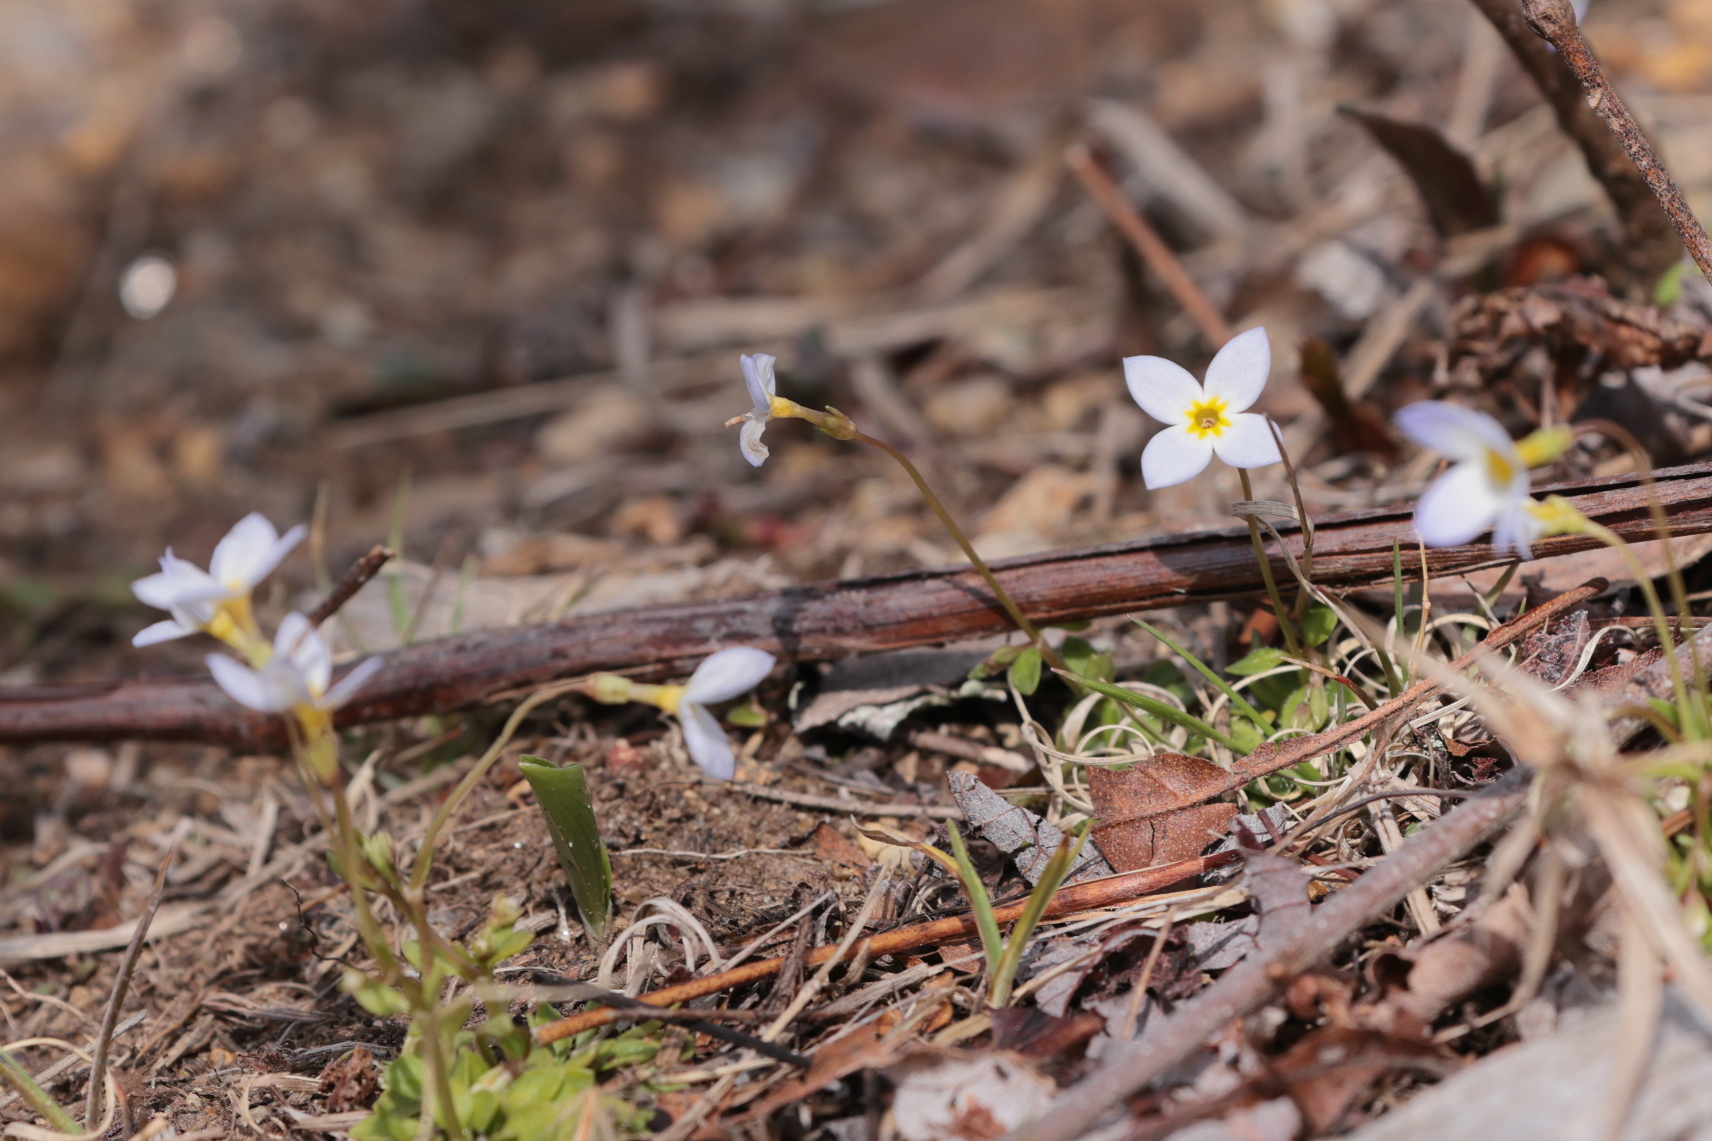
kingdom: Plantae
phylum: Tracheophyta
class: Magnoliopsida
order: Gentianales
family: Rubiaceae
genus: Houstonia
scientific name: Houstonia caerulea
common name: Bluets
